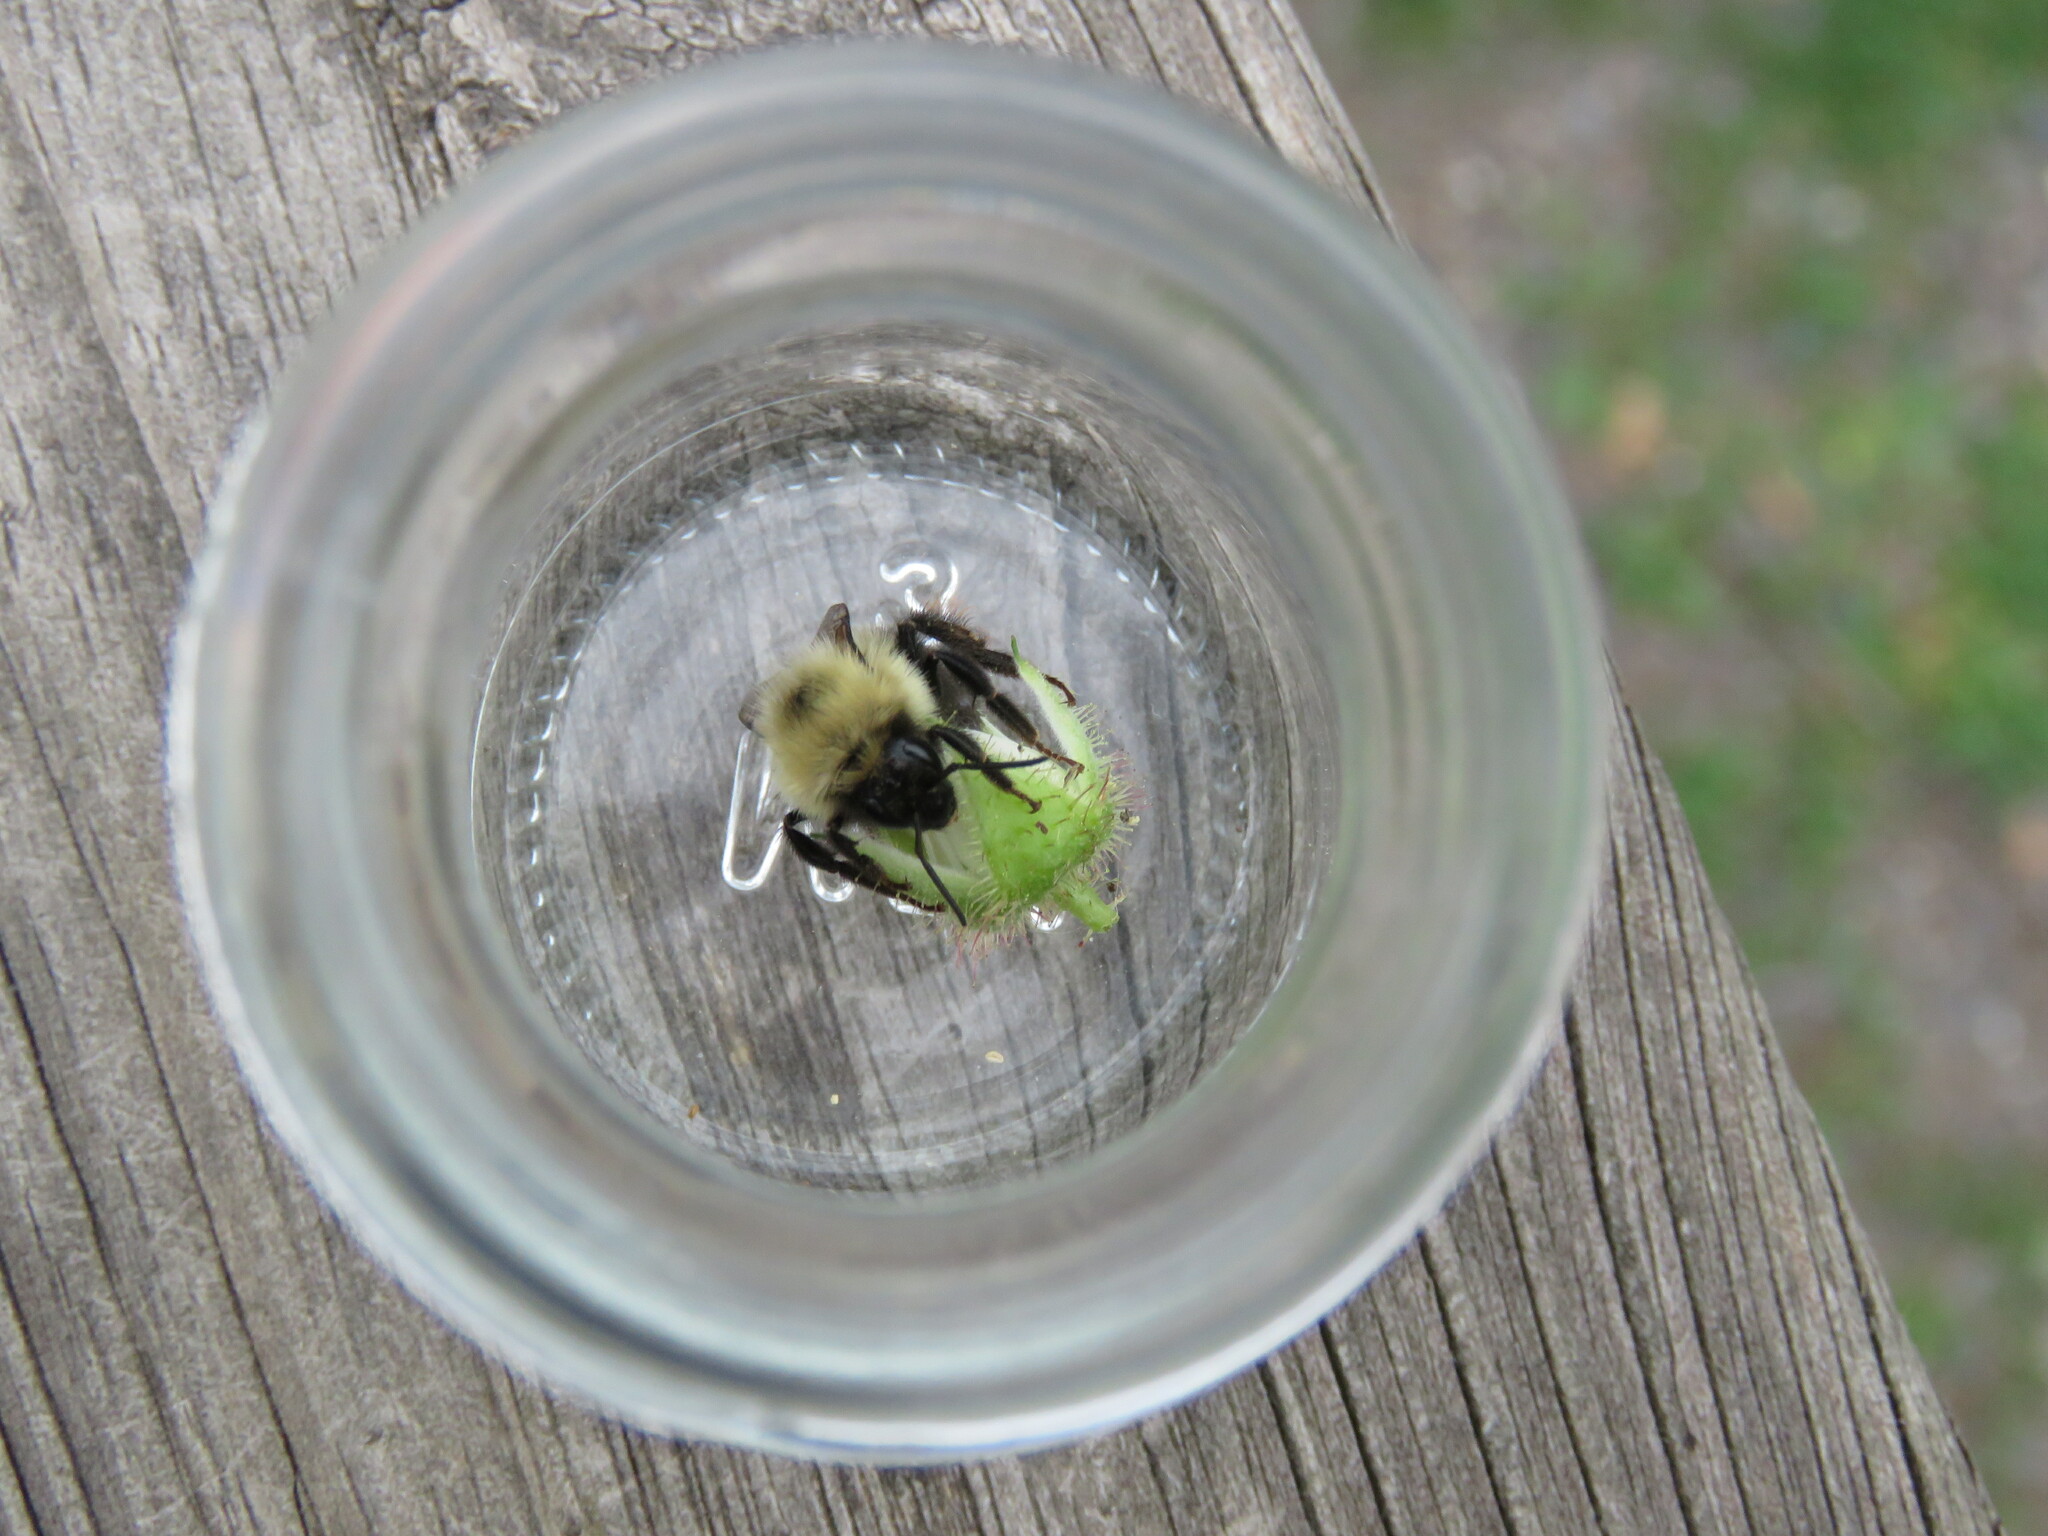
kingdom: Animalia
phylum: Arthropoda
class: Insecta
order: Hymenoptera
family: Apidae
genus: Bombus
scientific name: Bombus bimaculatus
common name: Two-spotted bumble bee
